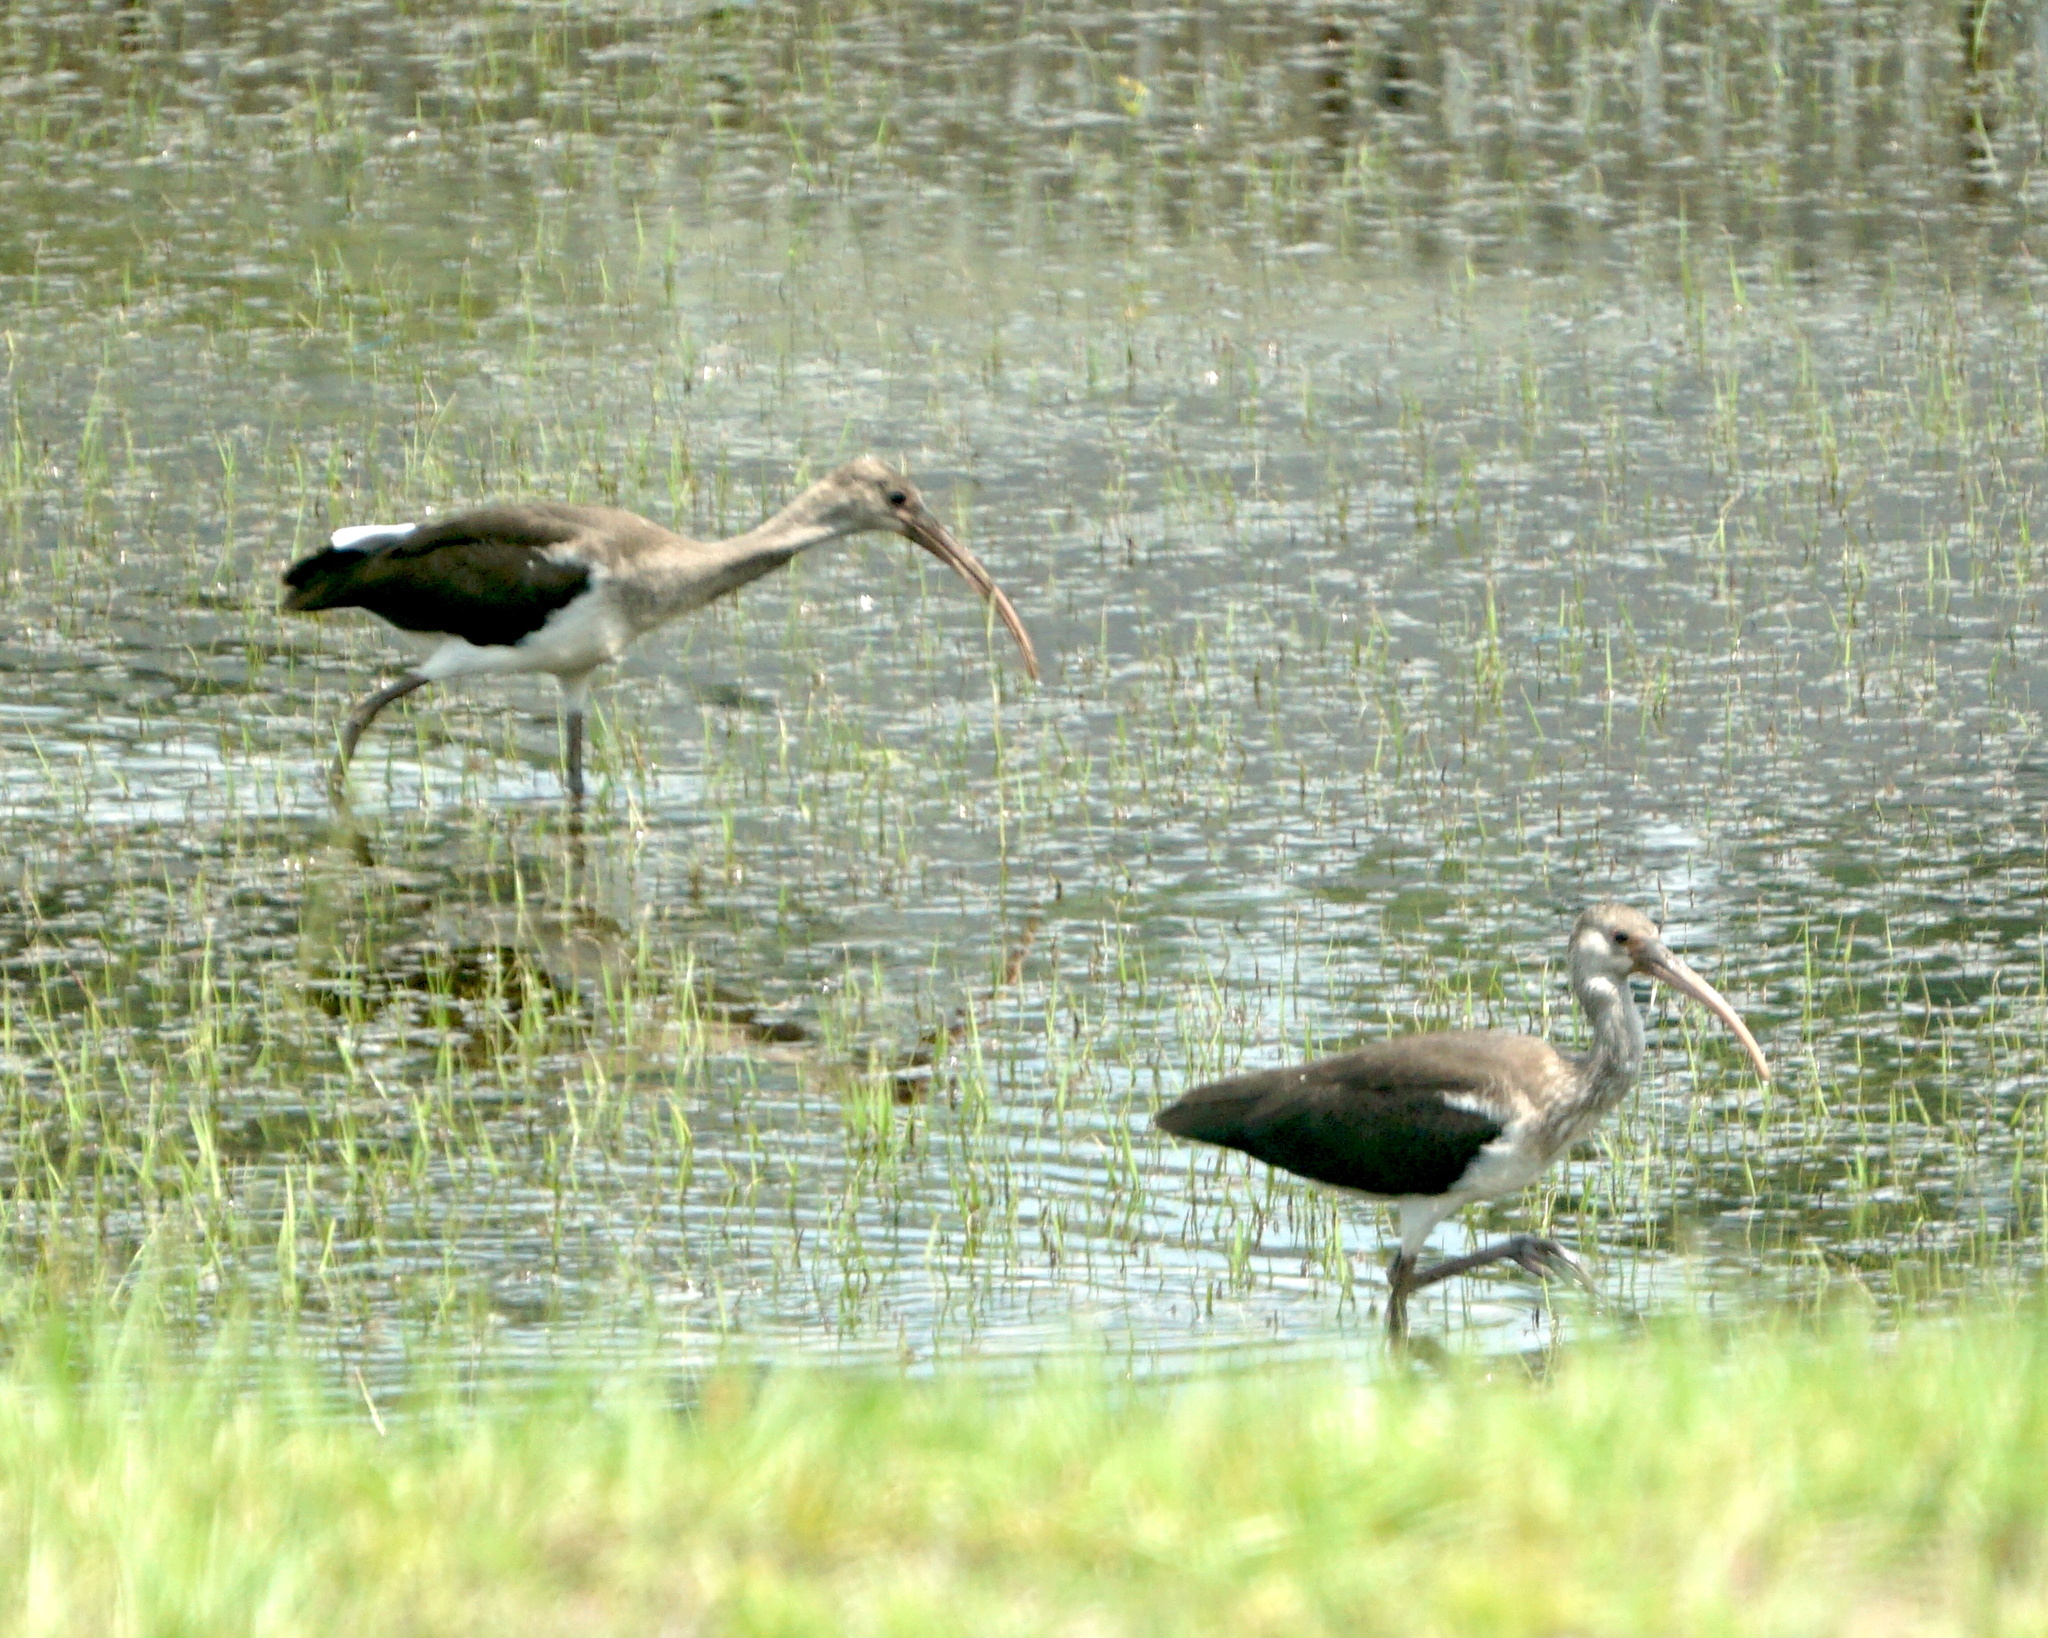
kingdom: Animalia
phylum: Chordata
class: Aves
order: Pelecaniformes
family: Threskiornithidae
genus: Eudocimus
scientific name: Eudocimus albus
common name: White ibis
